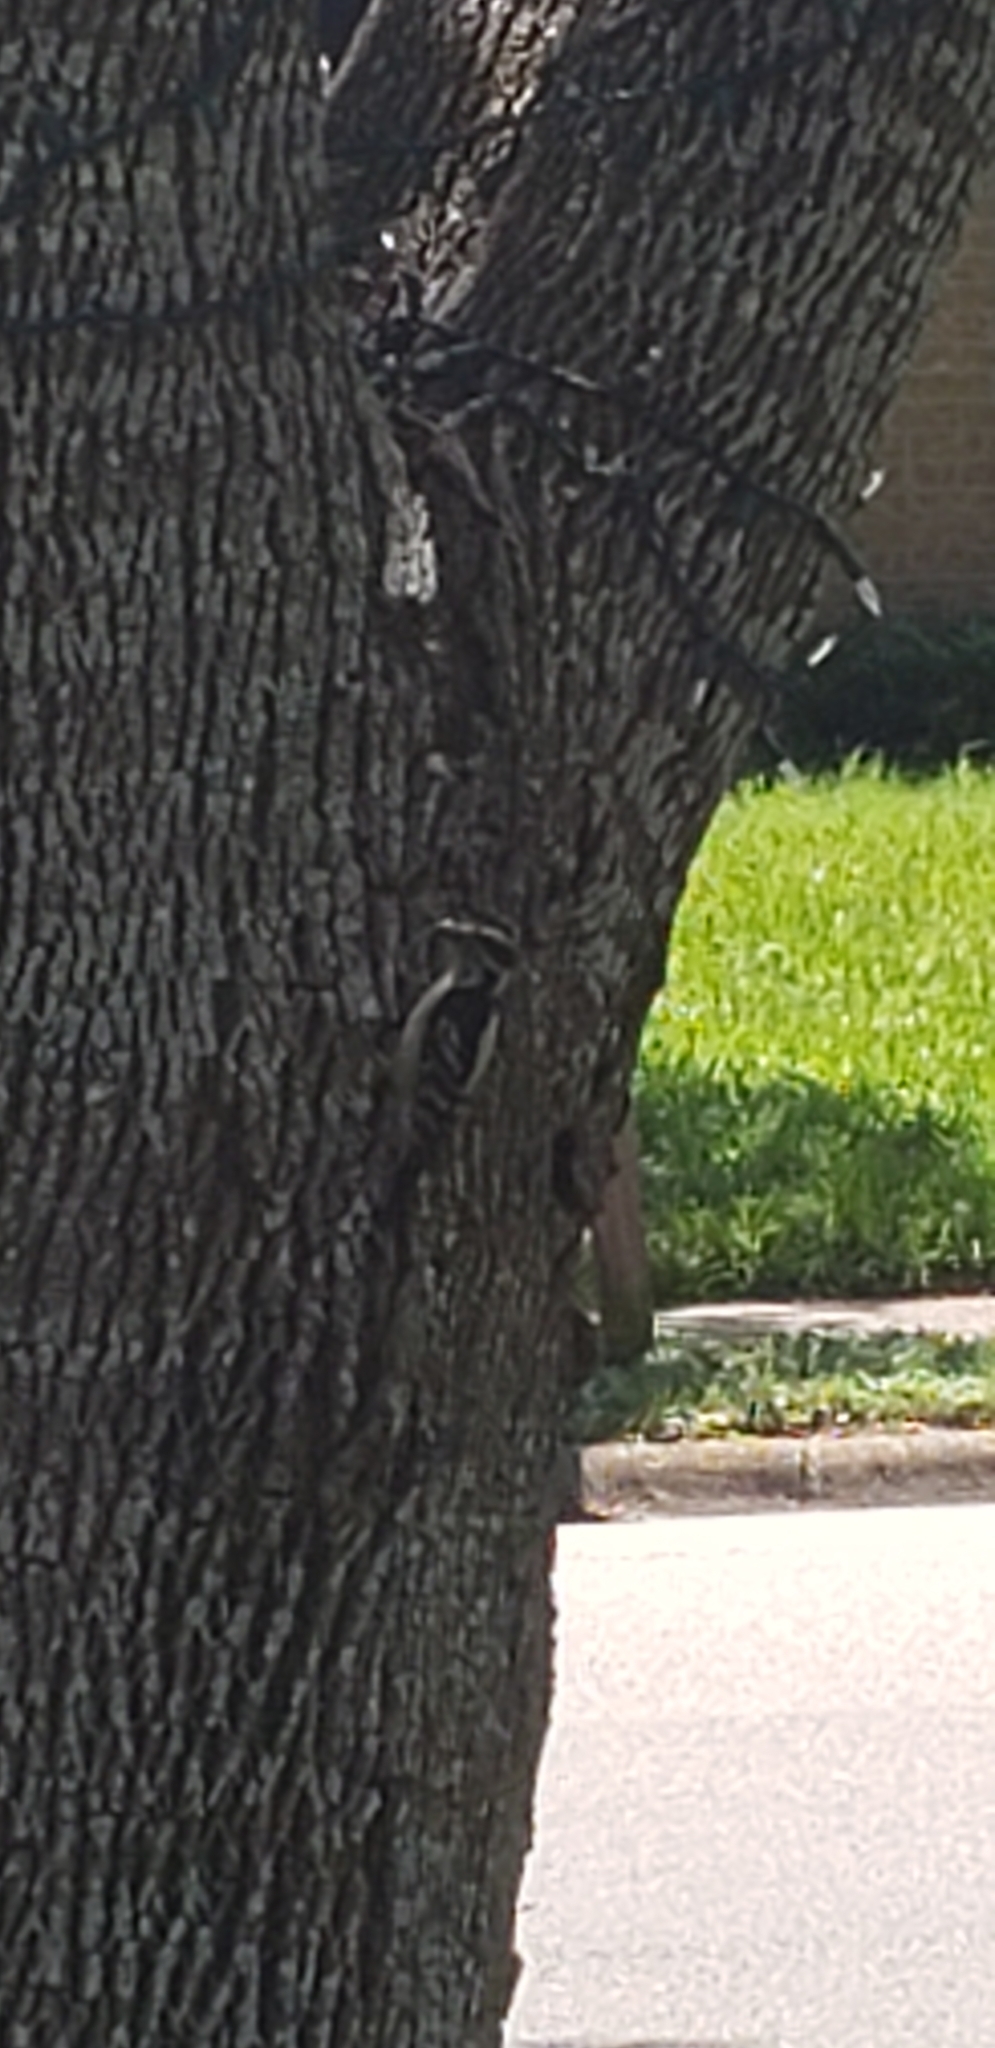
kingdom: Animalia
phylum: Chordata
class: Aves
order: Piciformes
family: Picidae
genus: Dryobates
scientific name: Dryobates pubescens
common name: Downy woodpecker
